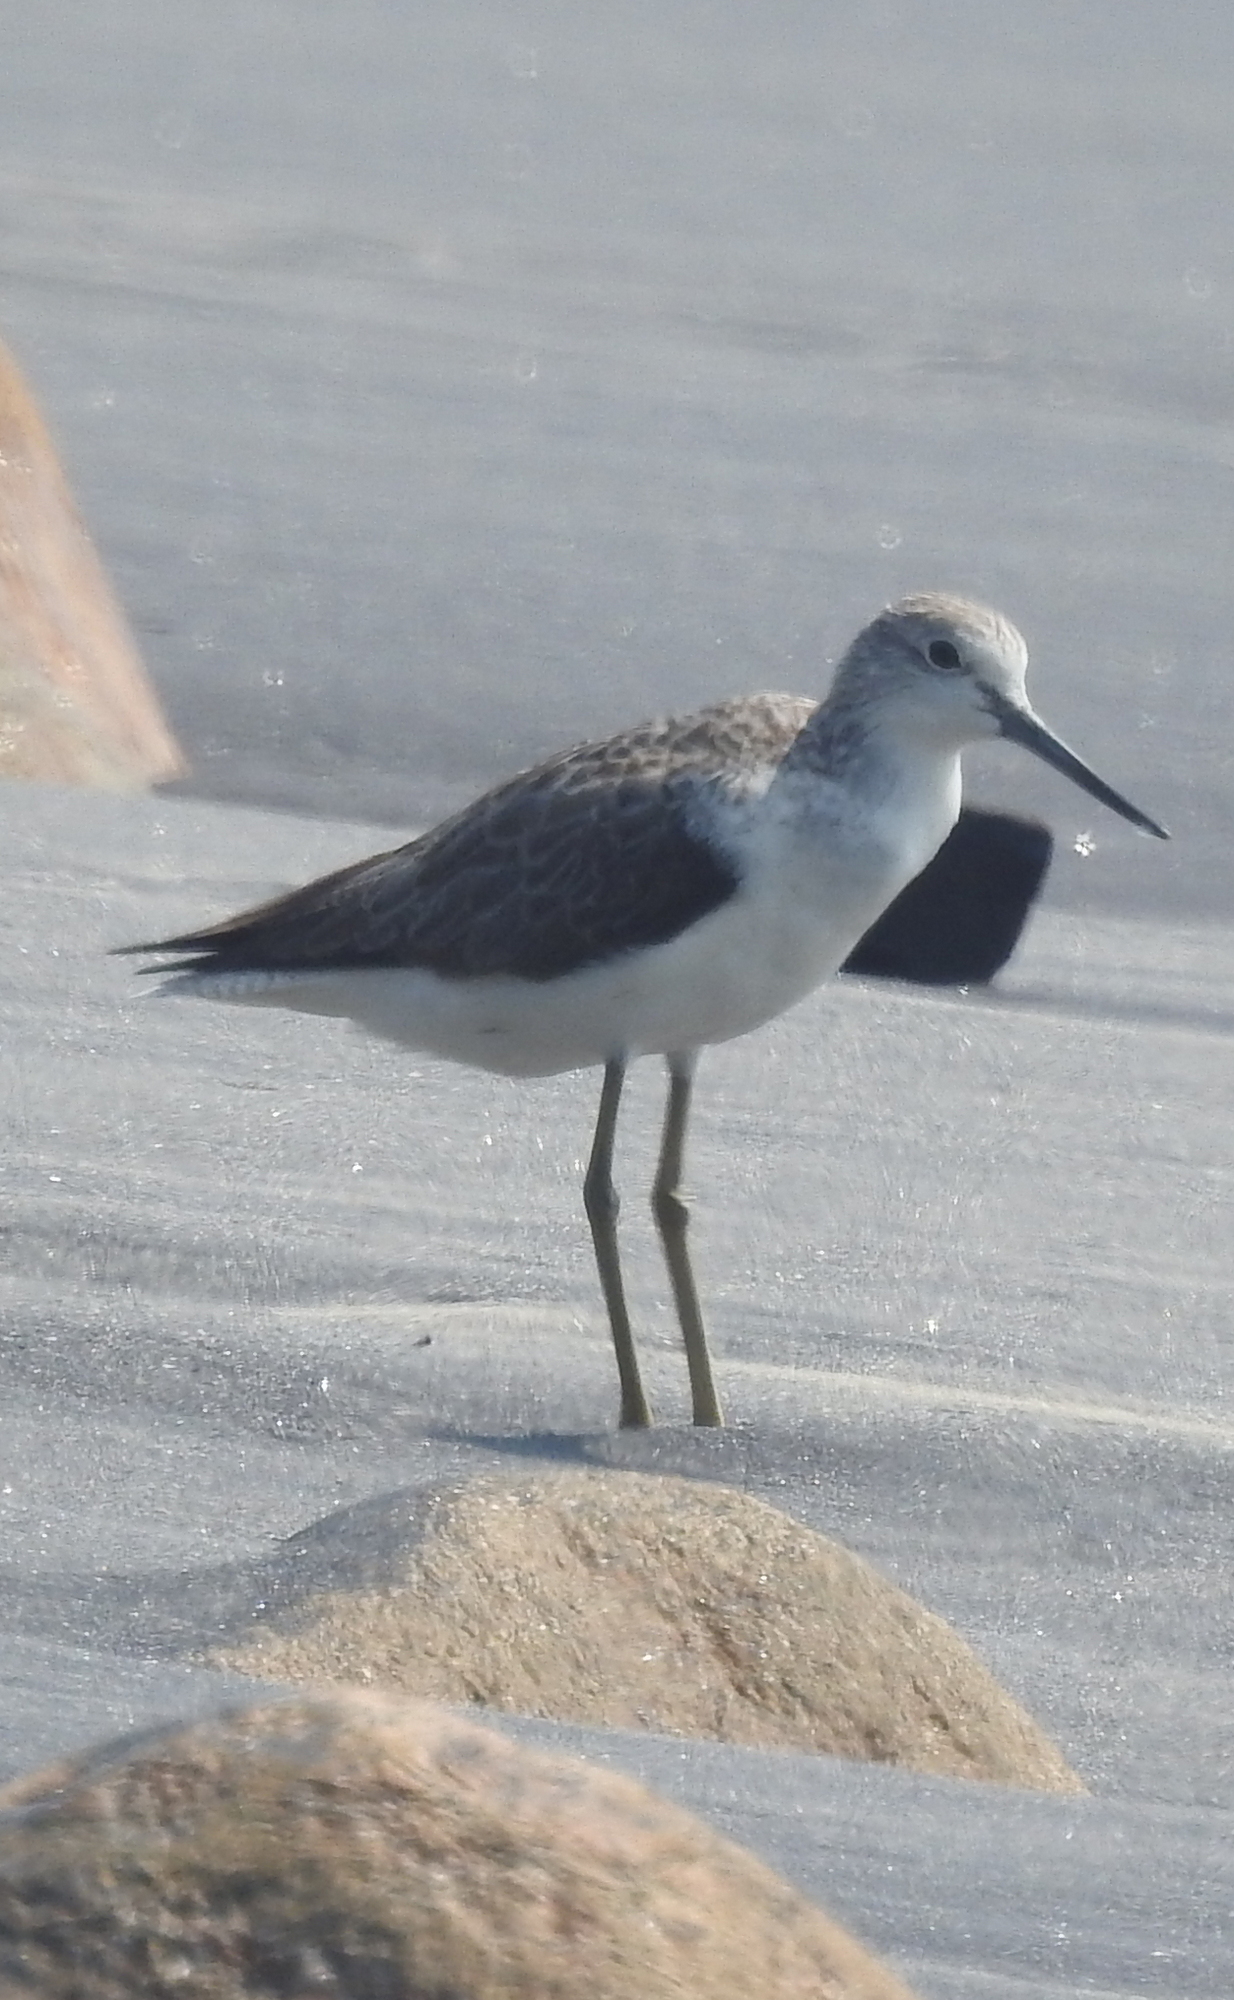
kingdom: Animalia
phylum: Chordata
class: Aves
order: Charadriiformes
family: Scolopacidae
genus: Tringa
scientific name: Tringa nebularia
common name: Common greenshank
